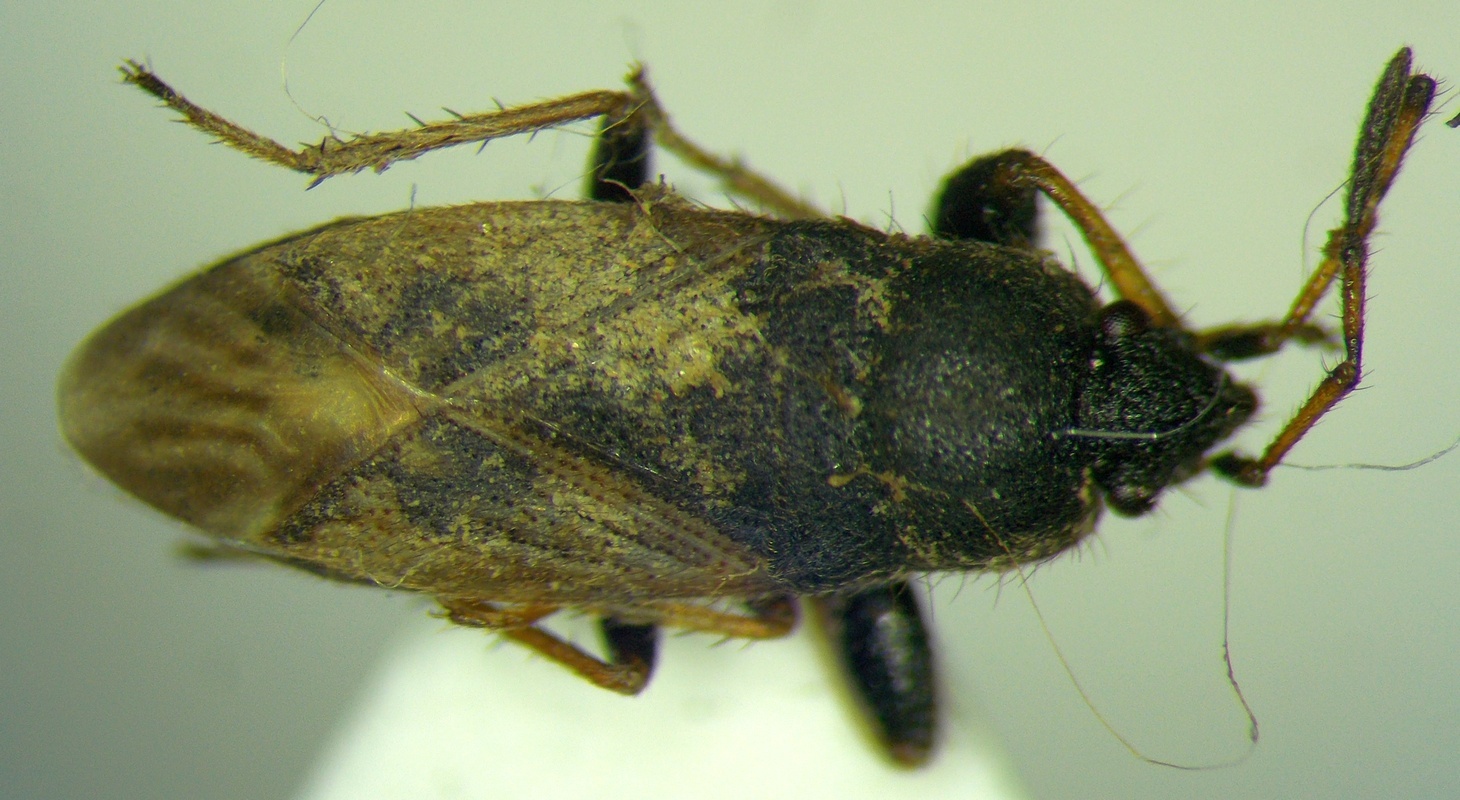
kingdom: Animalia
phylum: Arthropoda
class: Insecta
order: Hemiptera
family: Rhyparochromidae
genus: Megalonotus
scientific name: Megalonotus sabulicola
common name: Seed bug
